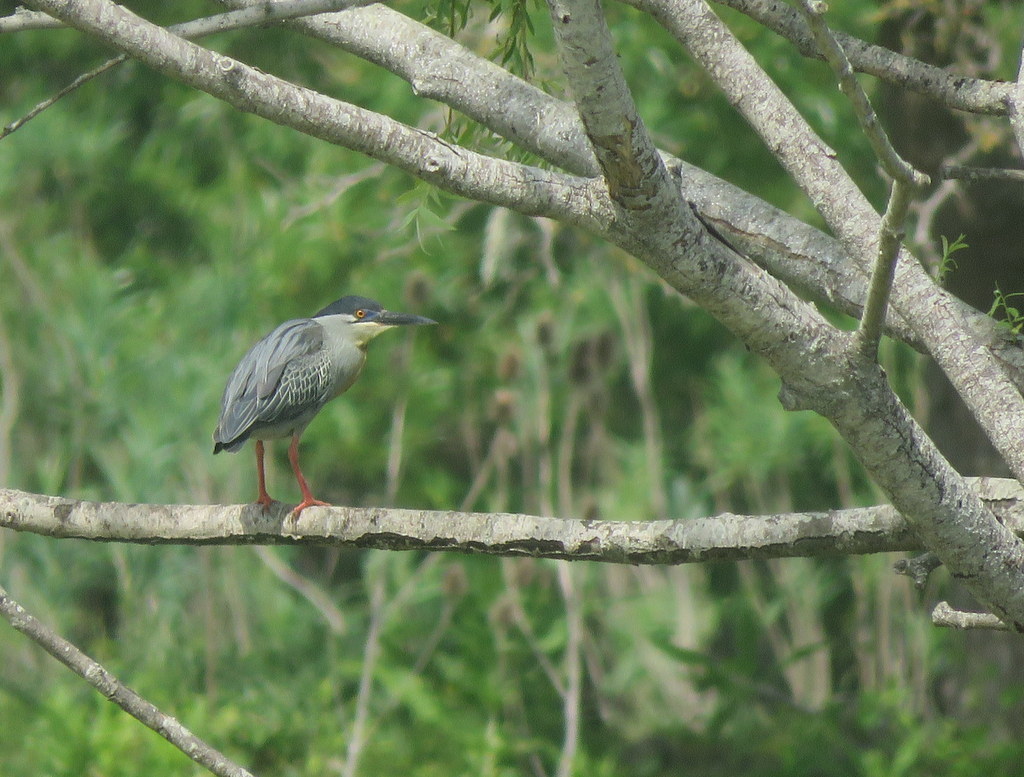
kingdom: Animalia
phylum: Chordata
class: Aves
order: Pelecaniformes
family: Ardeidae
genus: Butorides
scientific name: Butorides striata
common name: Striated heron
